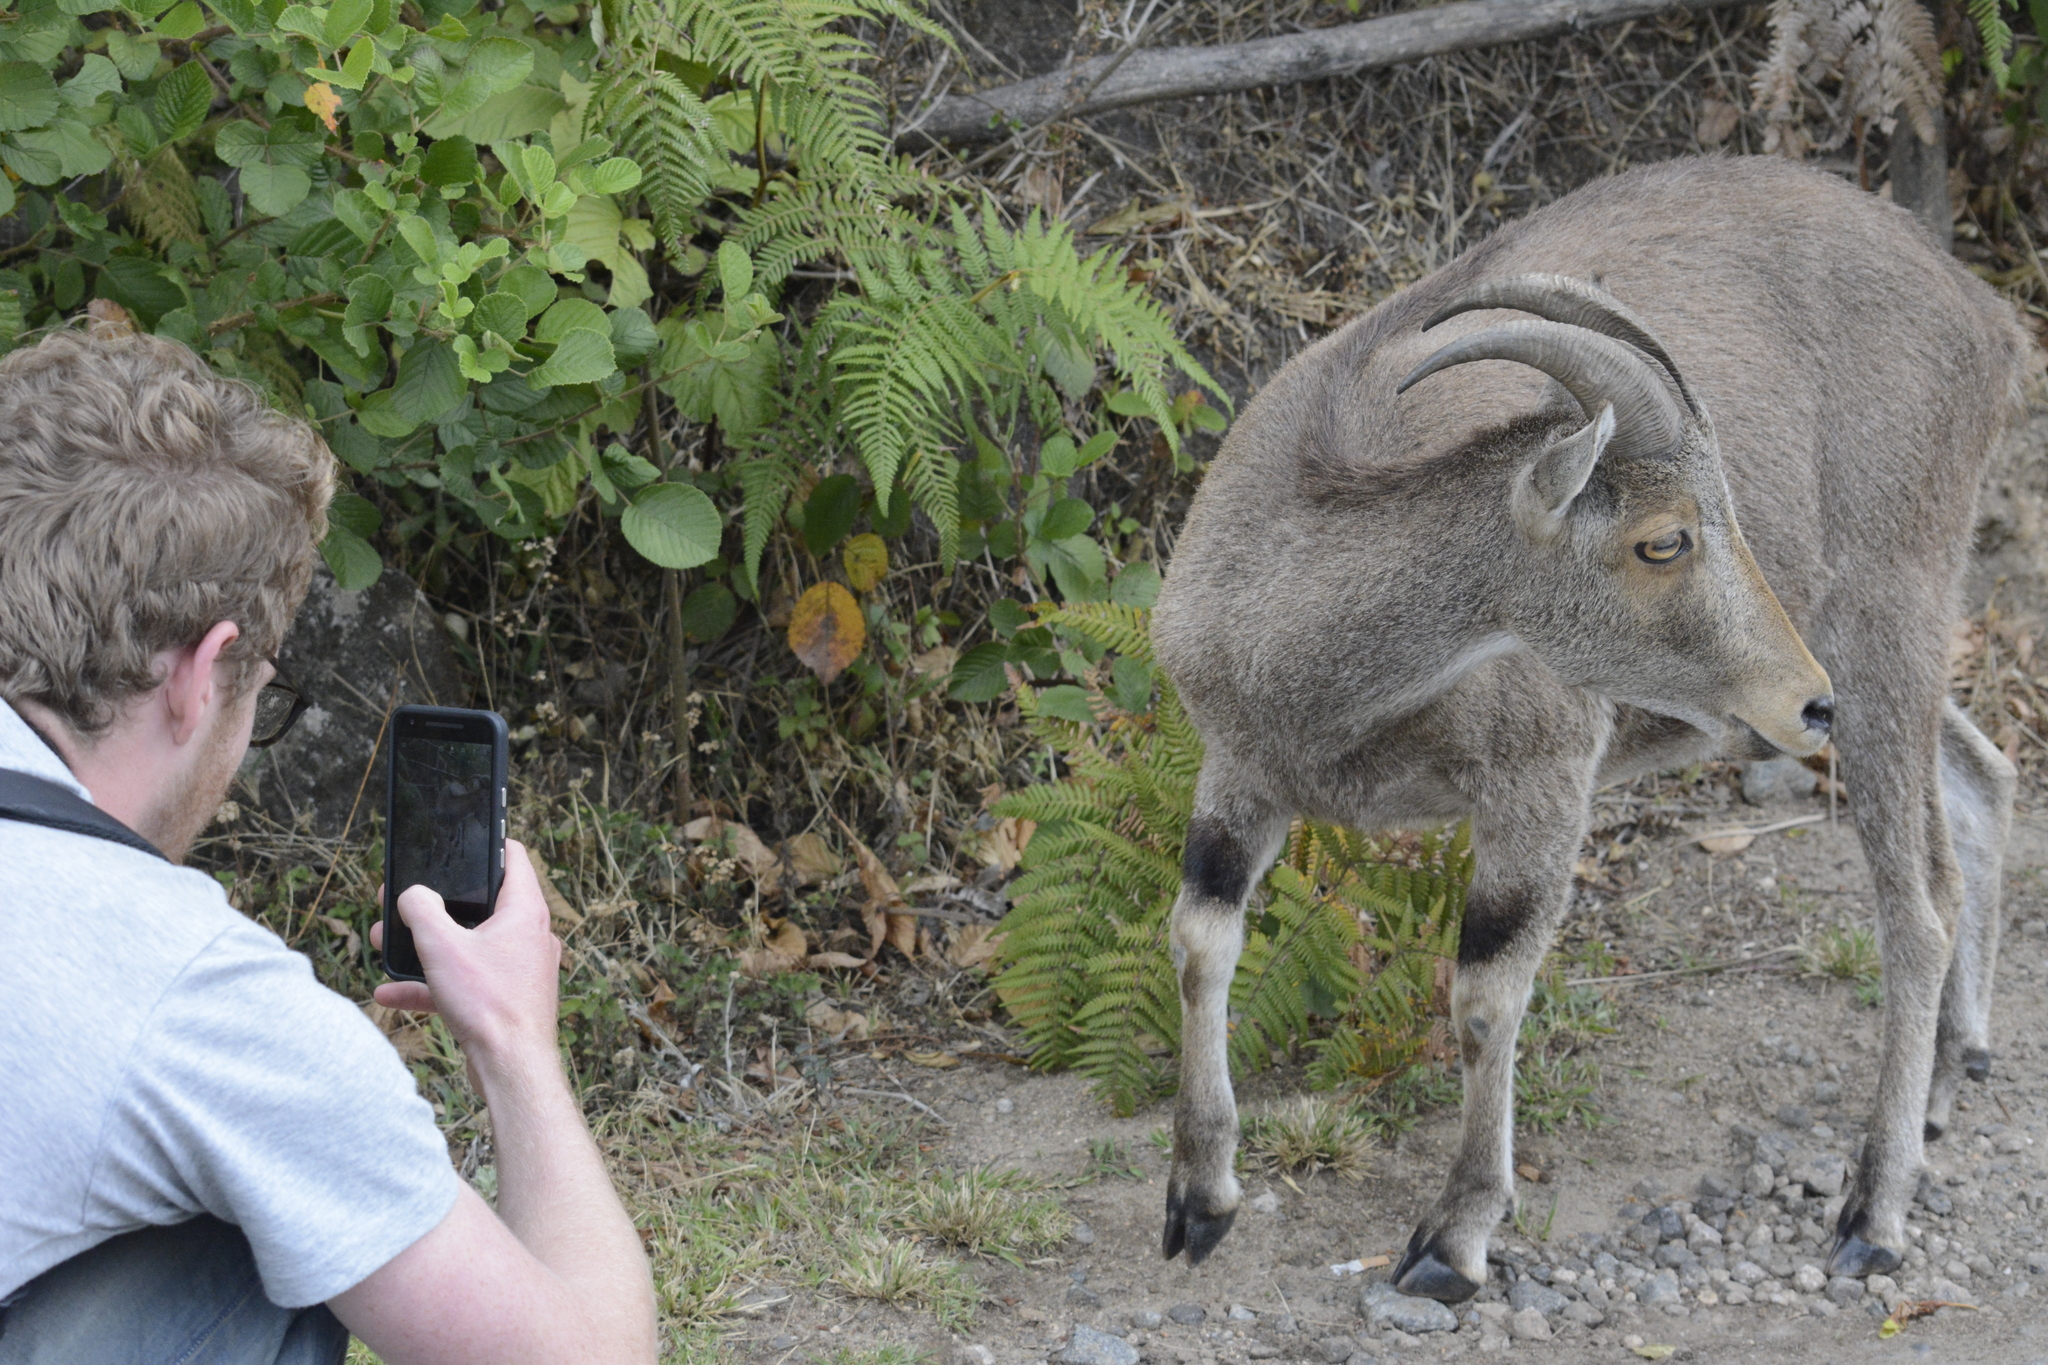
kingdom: Animalia
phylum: Chordata
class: Mammalia
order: Artiodactyla
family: Bovidae
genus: Hemitragus
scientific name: Hemitragus hylocrius
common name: Nilgiri tahr
